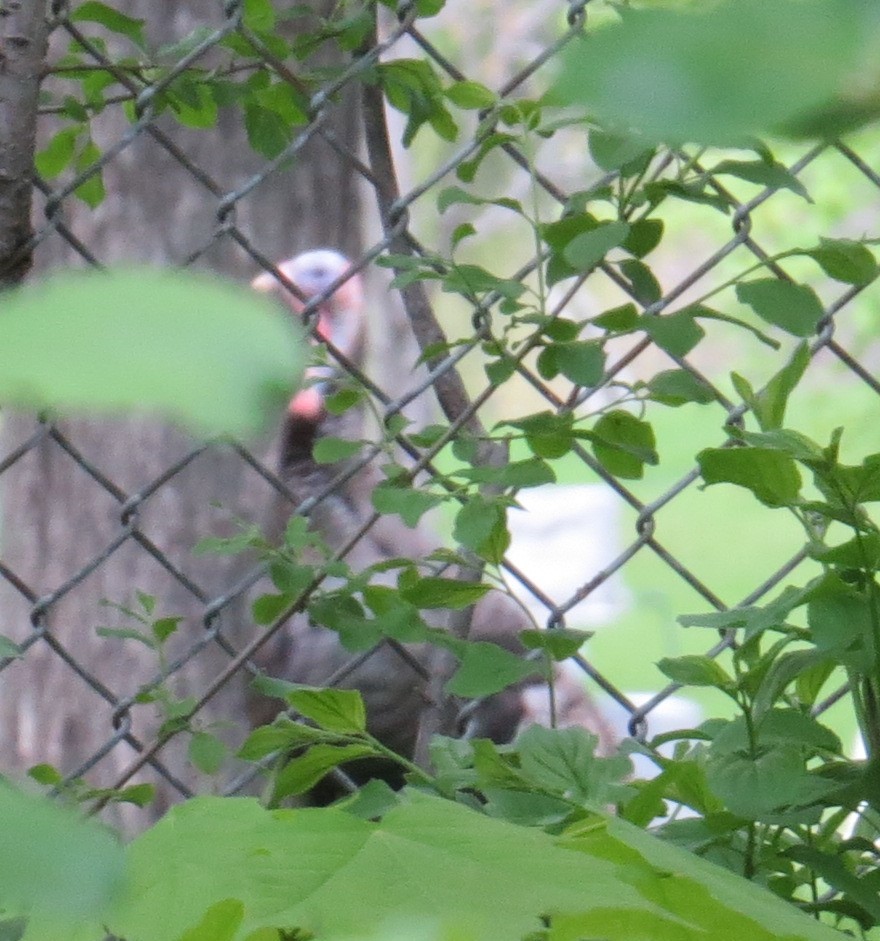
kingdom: Animalia
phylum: Chordata
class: Aves
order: Galliformes
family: Phasianidae
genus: Meleagris
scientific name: Meleagris gallopavo
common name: Wild turkey
